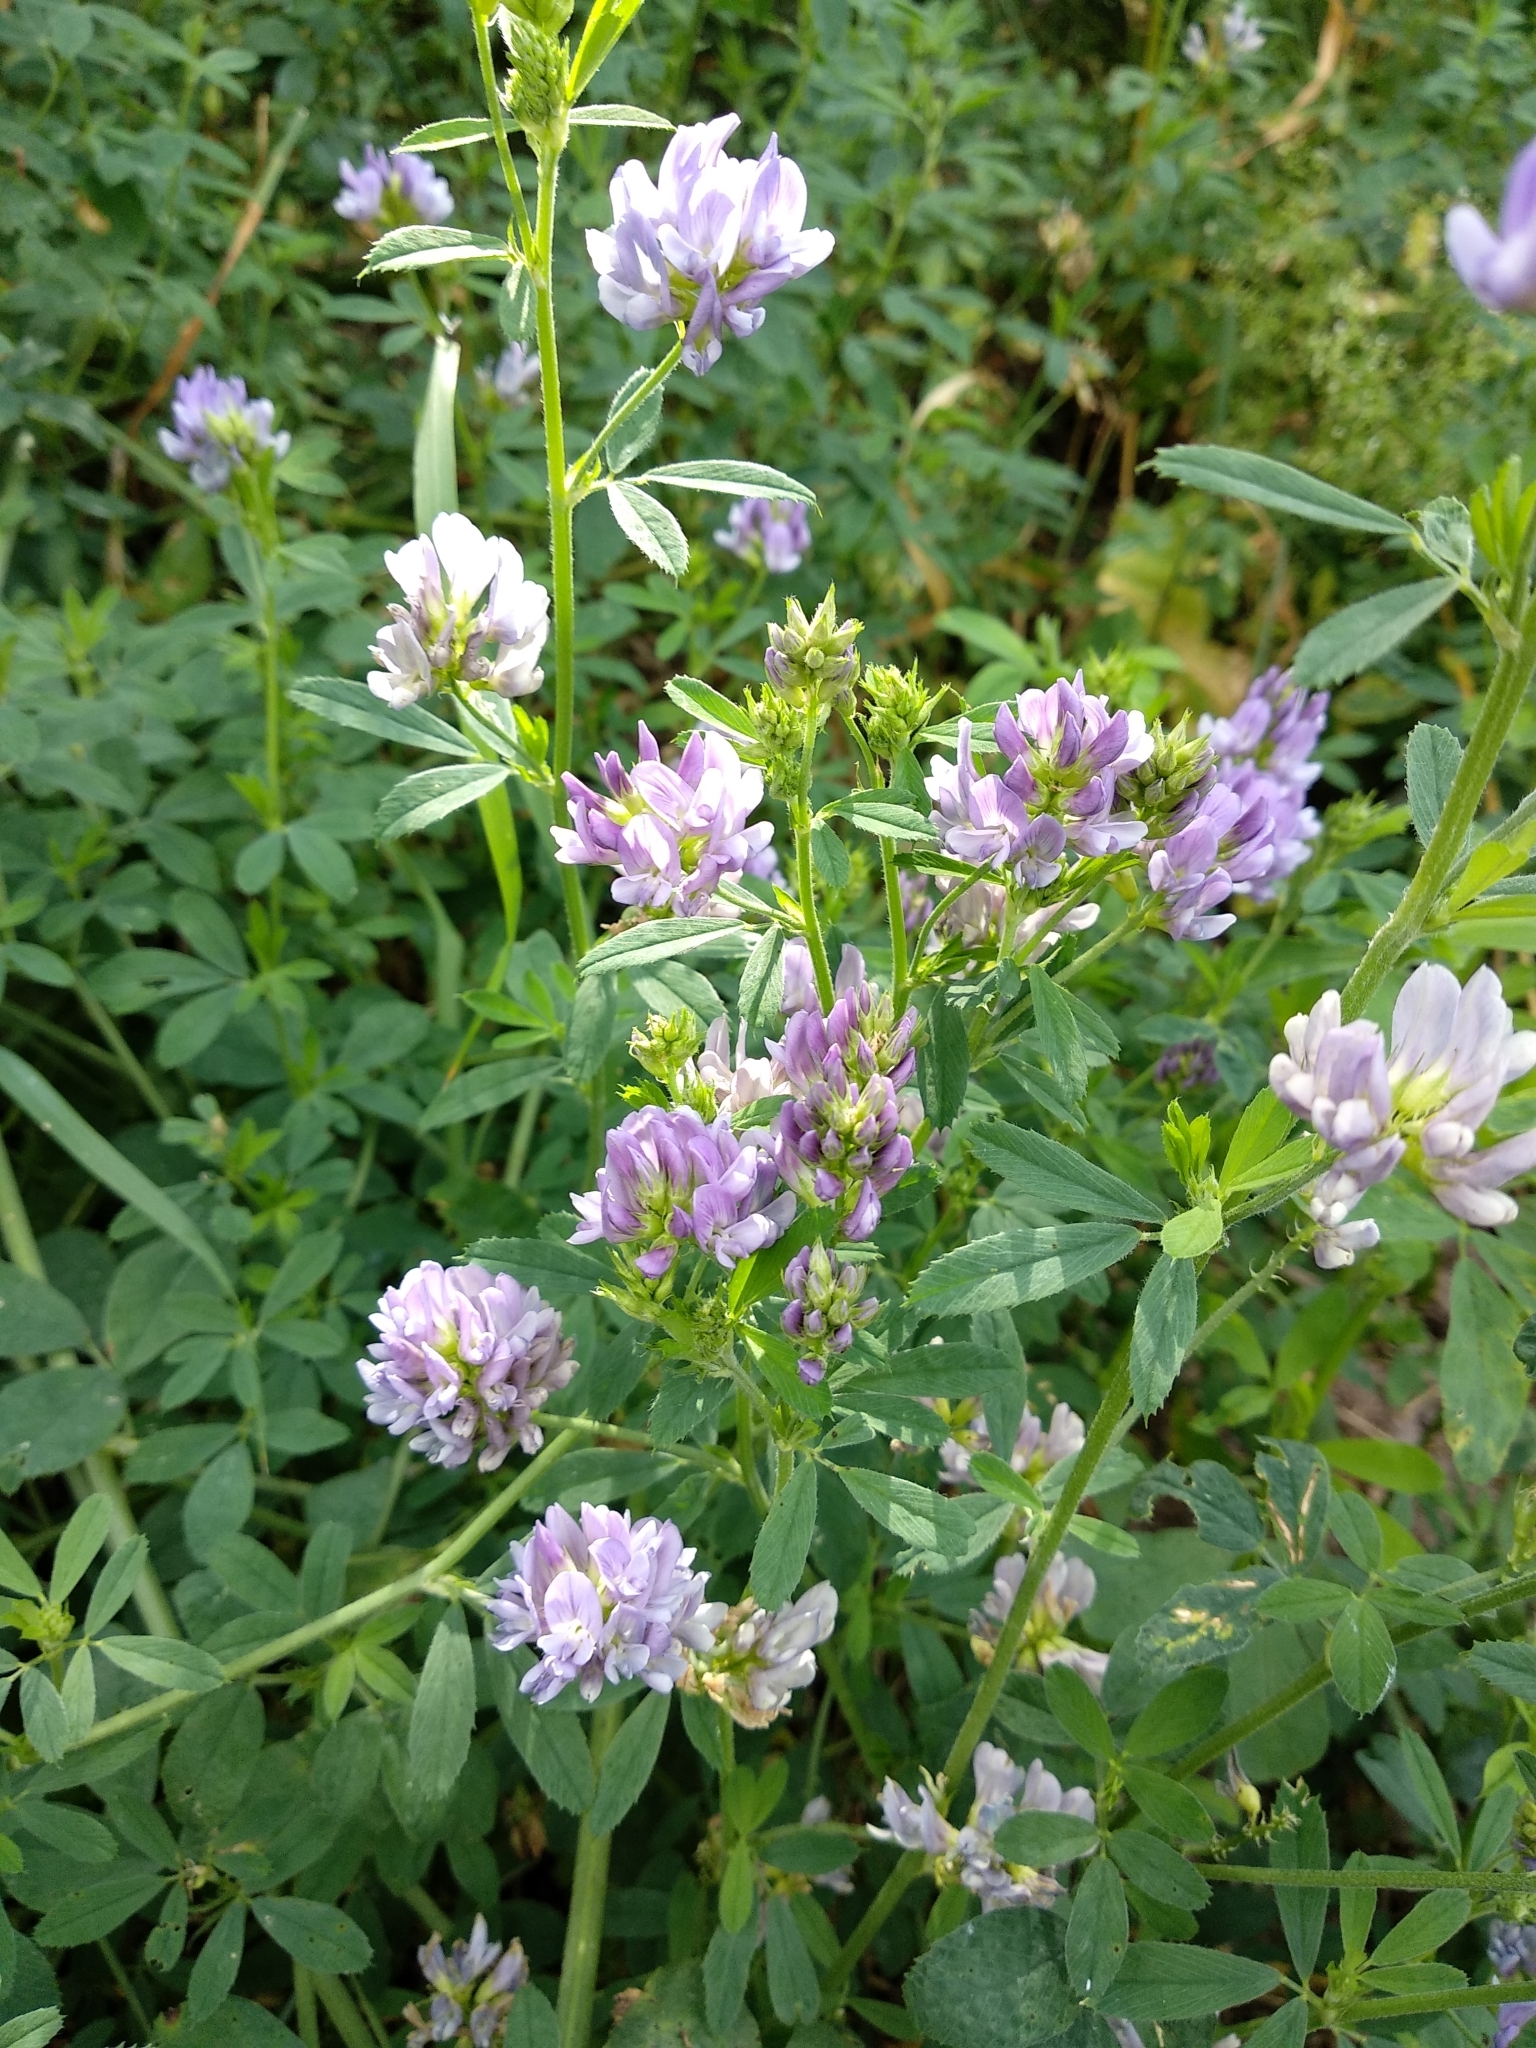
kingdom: Plantae
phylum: Tracheophyta
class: Magnoliopsida
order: Fabales
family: Fabaceae
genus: Medicago
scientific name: Medicago sativa
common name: Alfalfa
